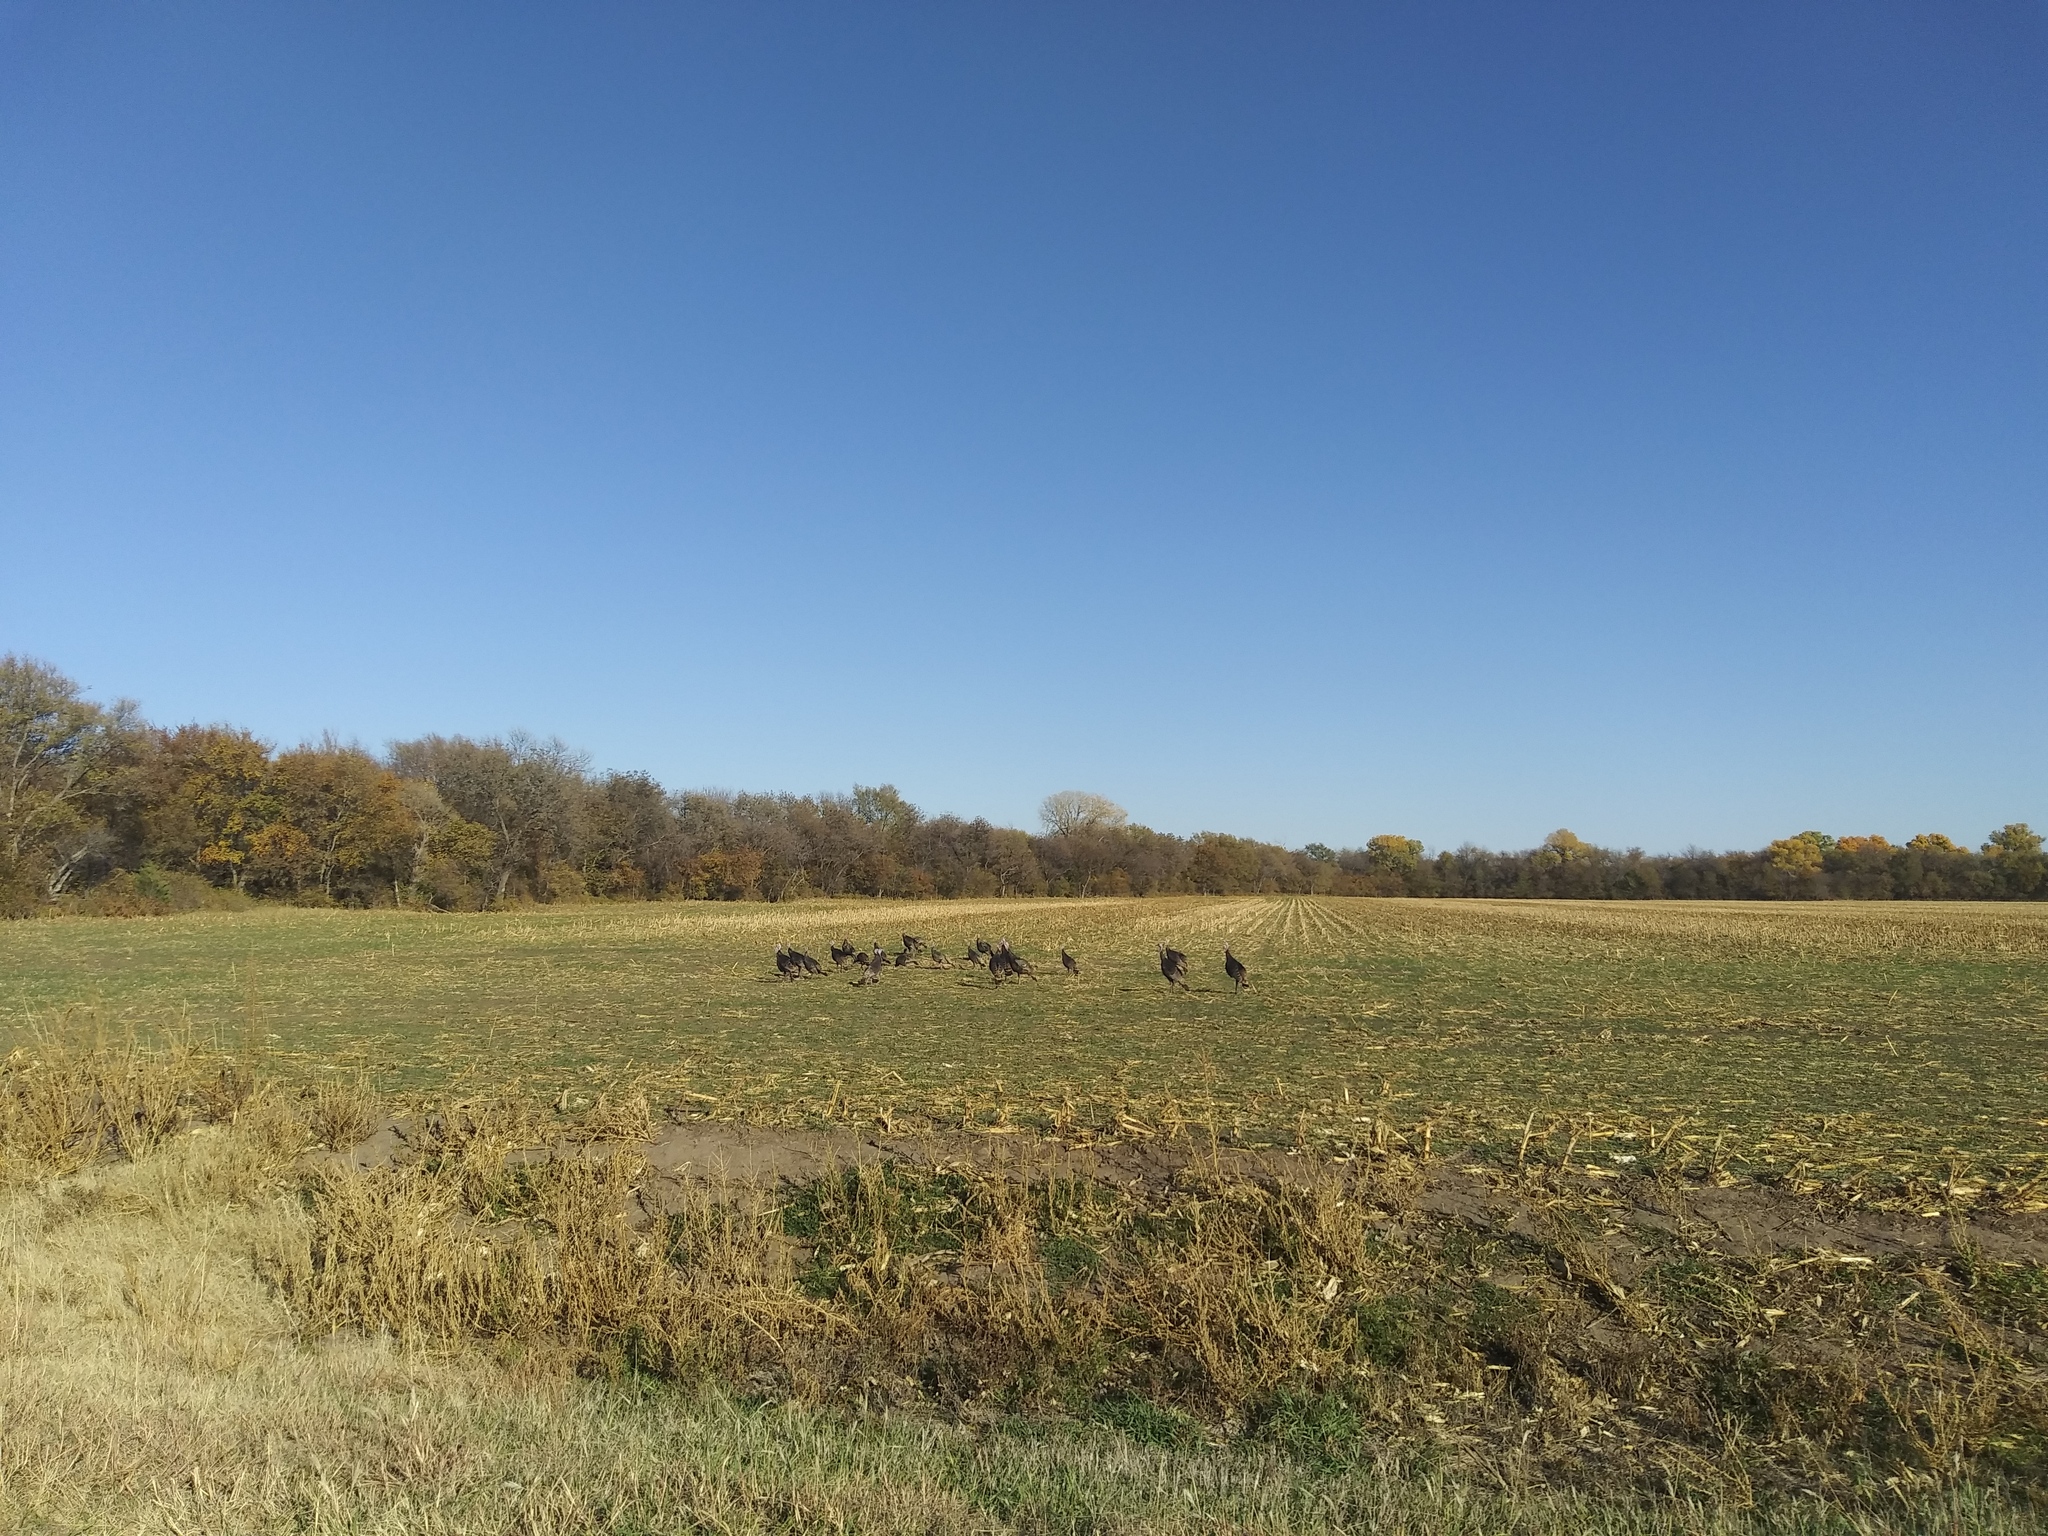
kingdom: Animalia
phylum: Chordata
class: Aves
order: Galliformes
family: Phasianidae
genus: Meleagris
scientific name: Meleagris gallopavo
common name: Wild turkey
